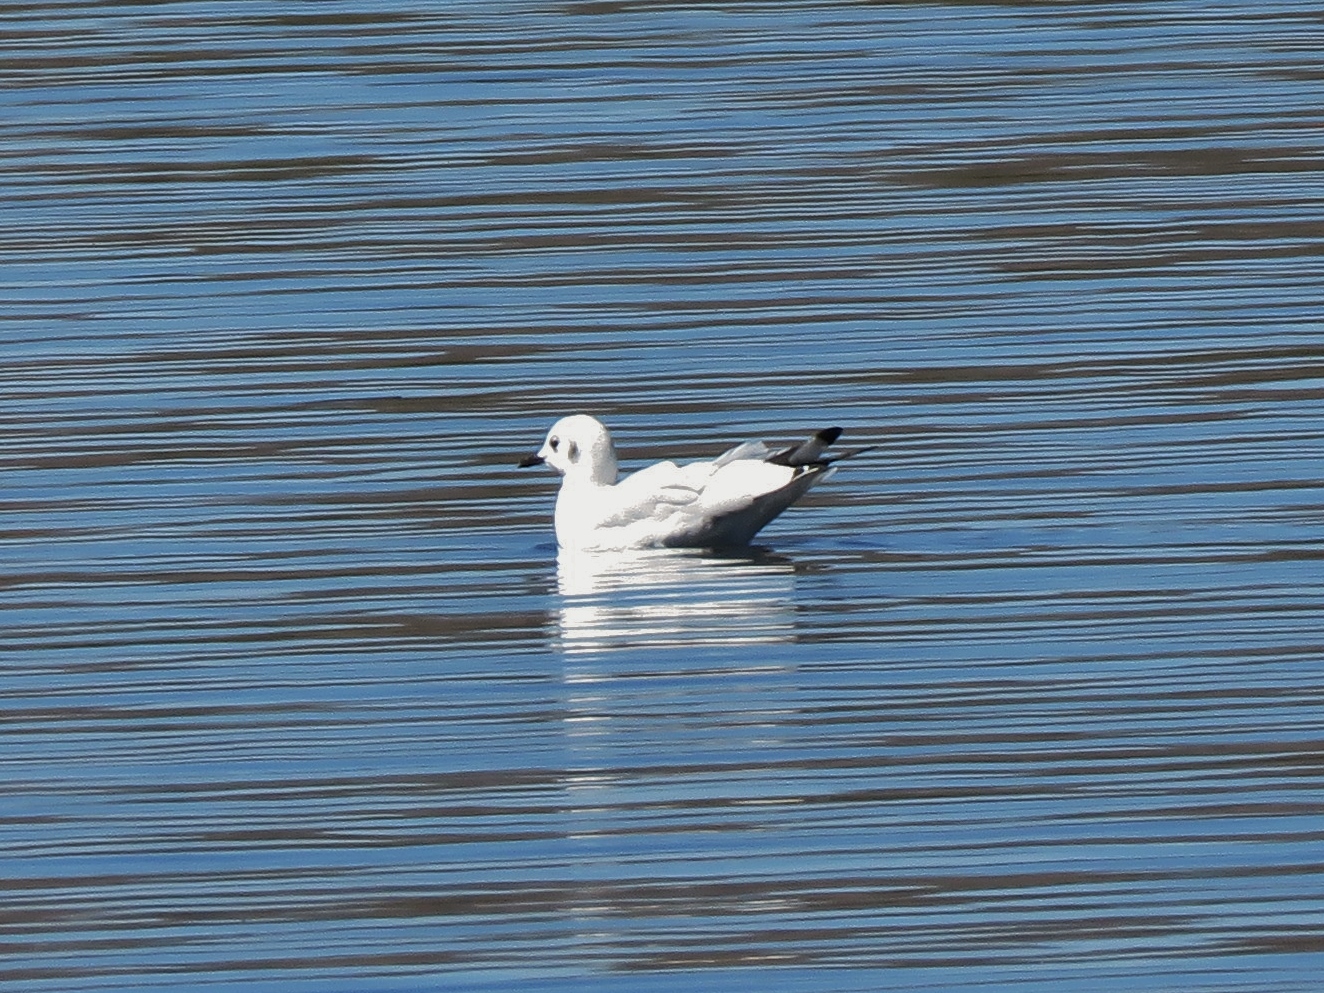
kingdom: Animalia
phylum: Chordata
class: Aves
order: Charadriiformes
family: Laridae
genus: Chroicocephalus
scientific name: Chroicocephalus serranus
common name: Andean gull
